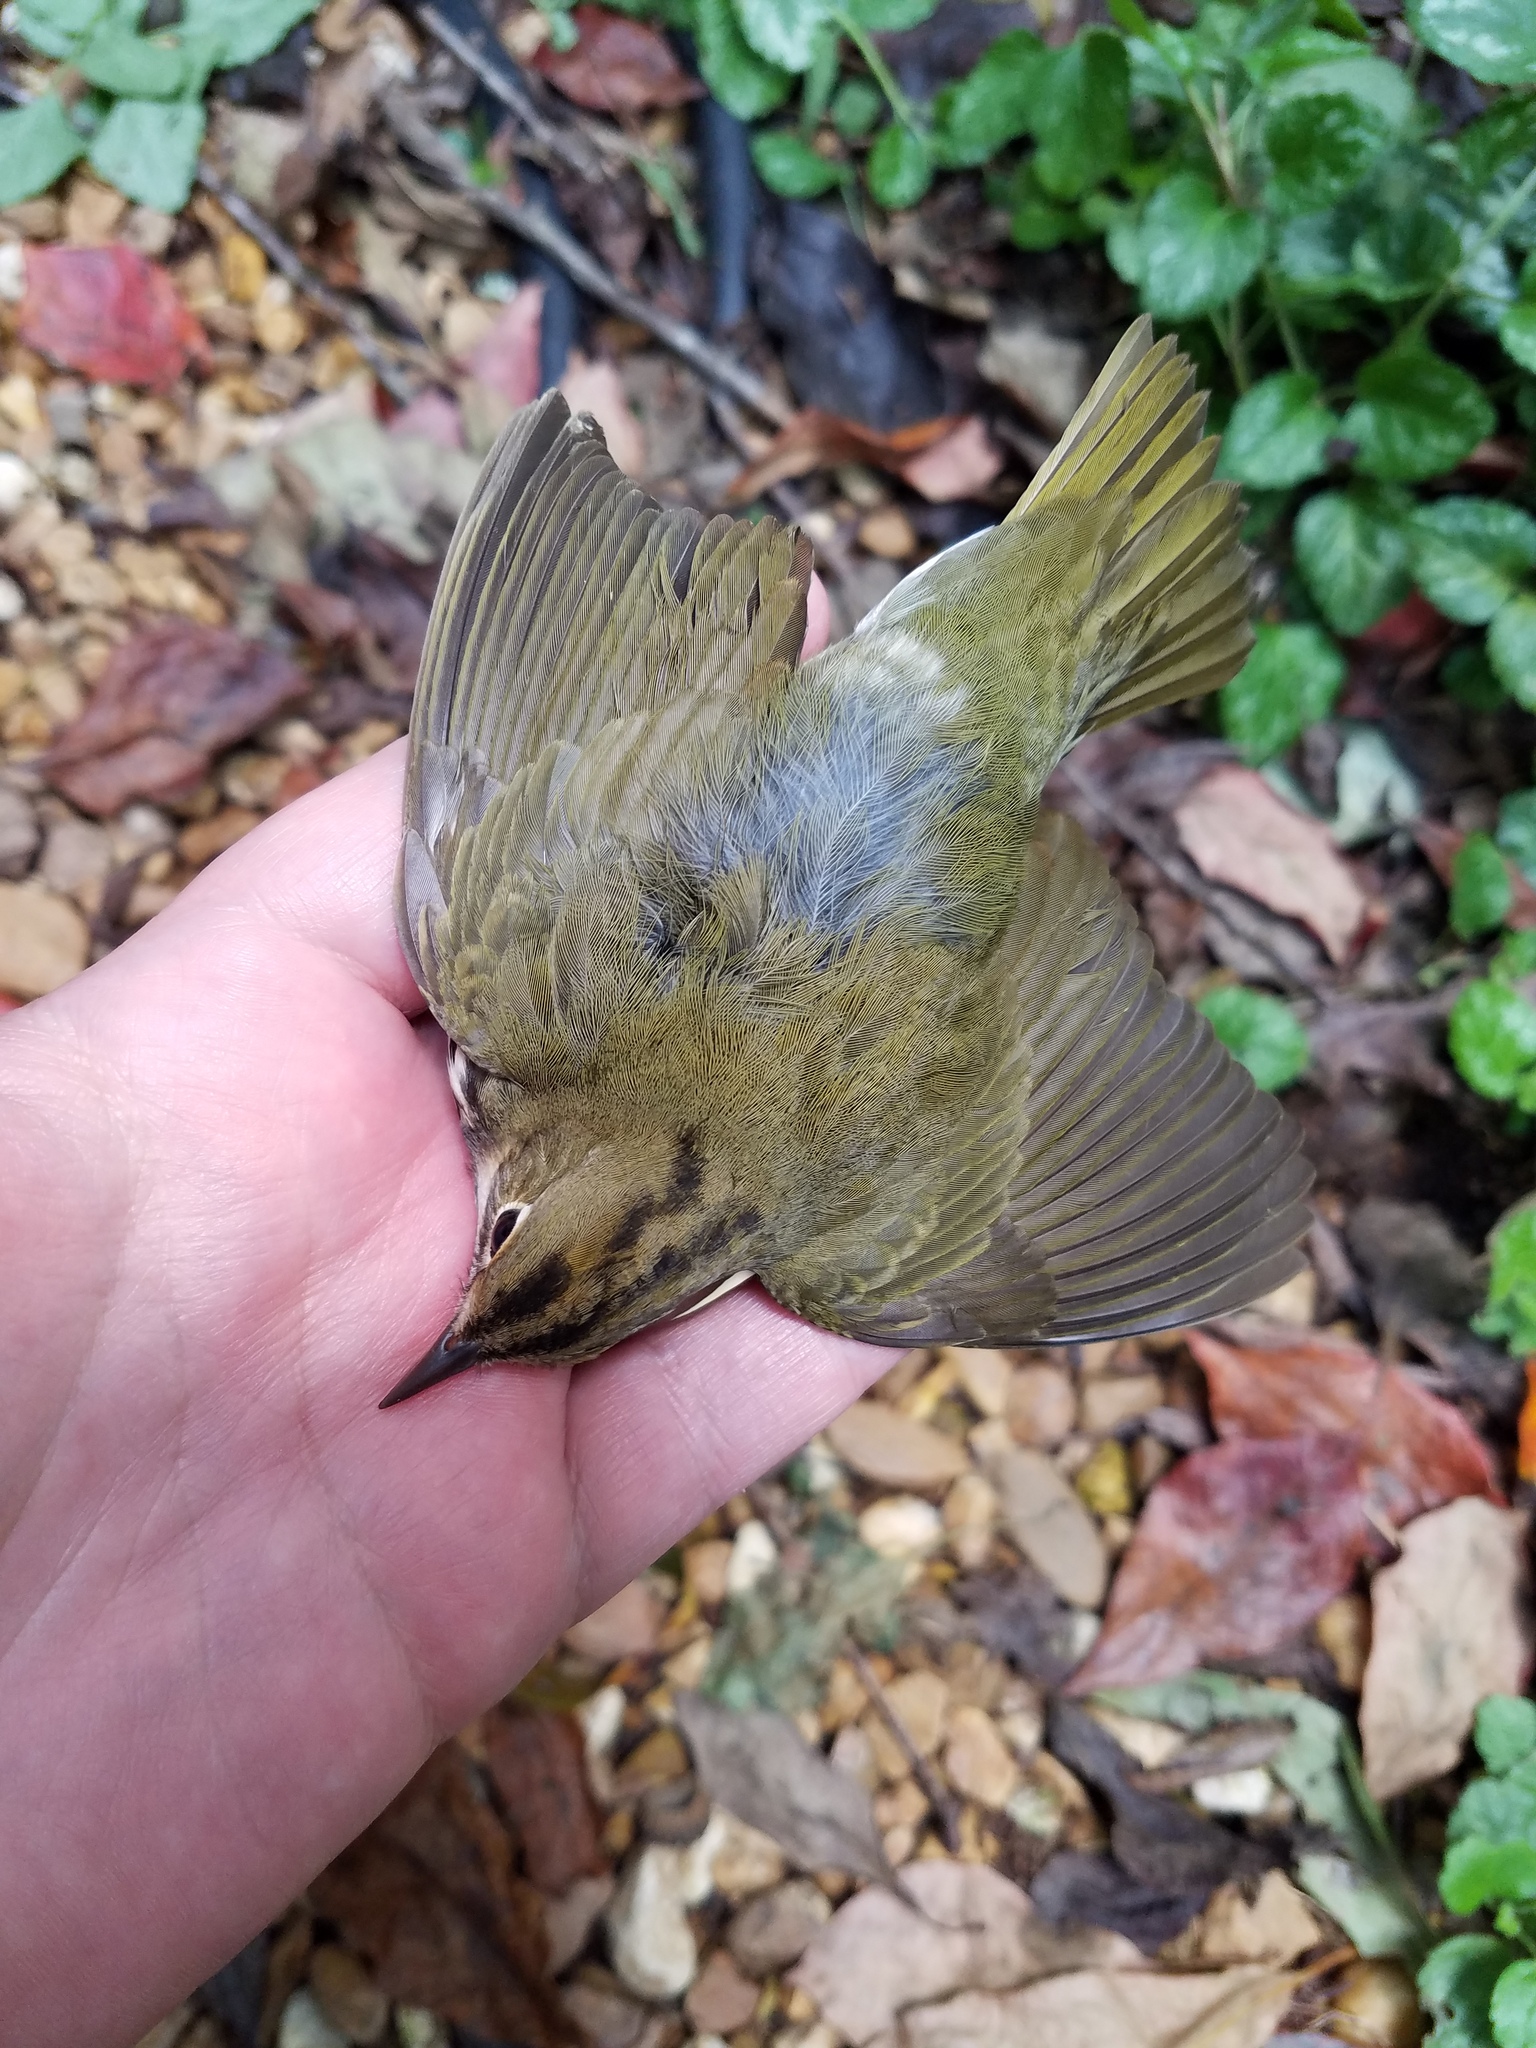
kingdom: Animalia
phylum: Chordata
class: Aves
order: Passeriformes
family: Parulidae
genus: Seiurus
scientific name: Seiurus aurocapilla
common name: Ovenbird
